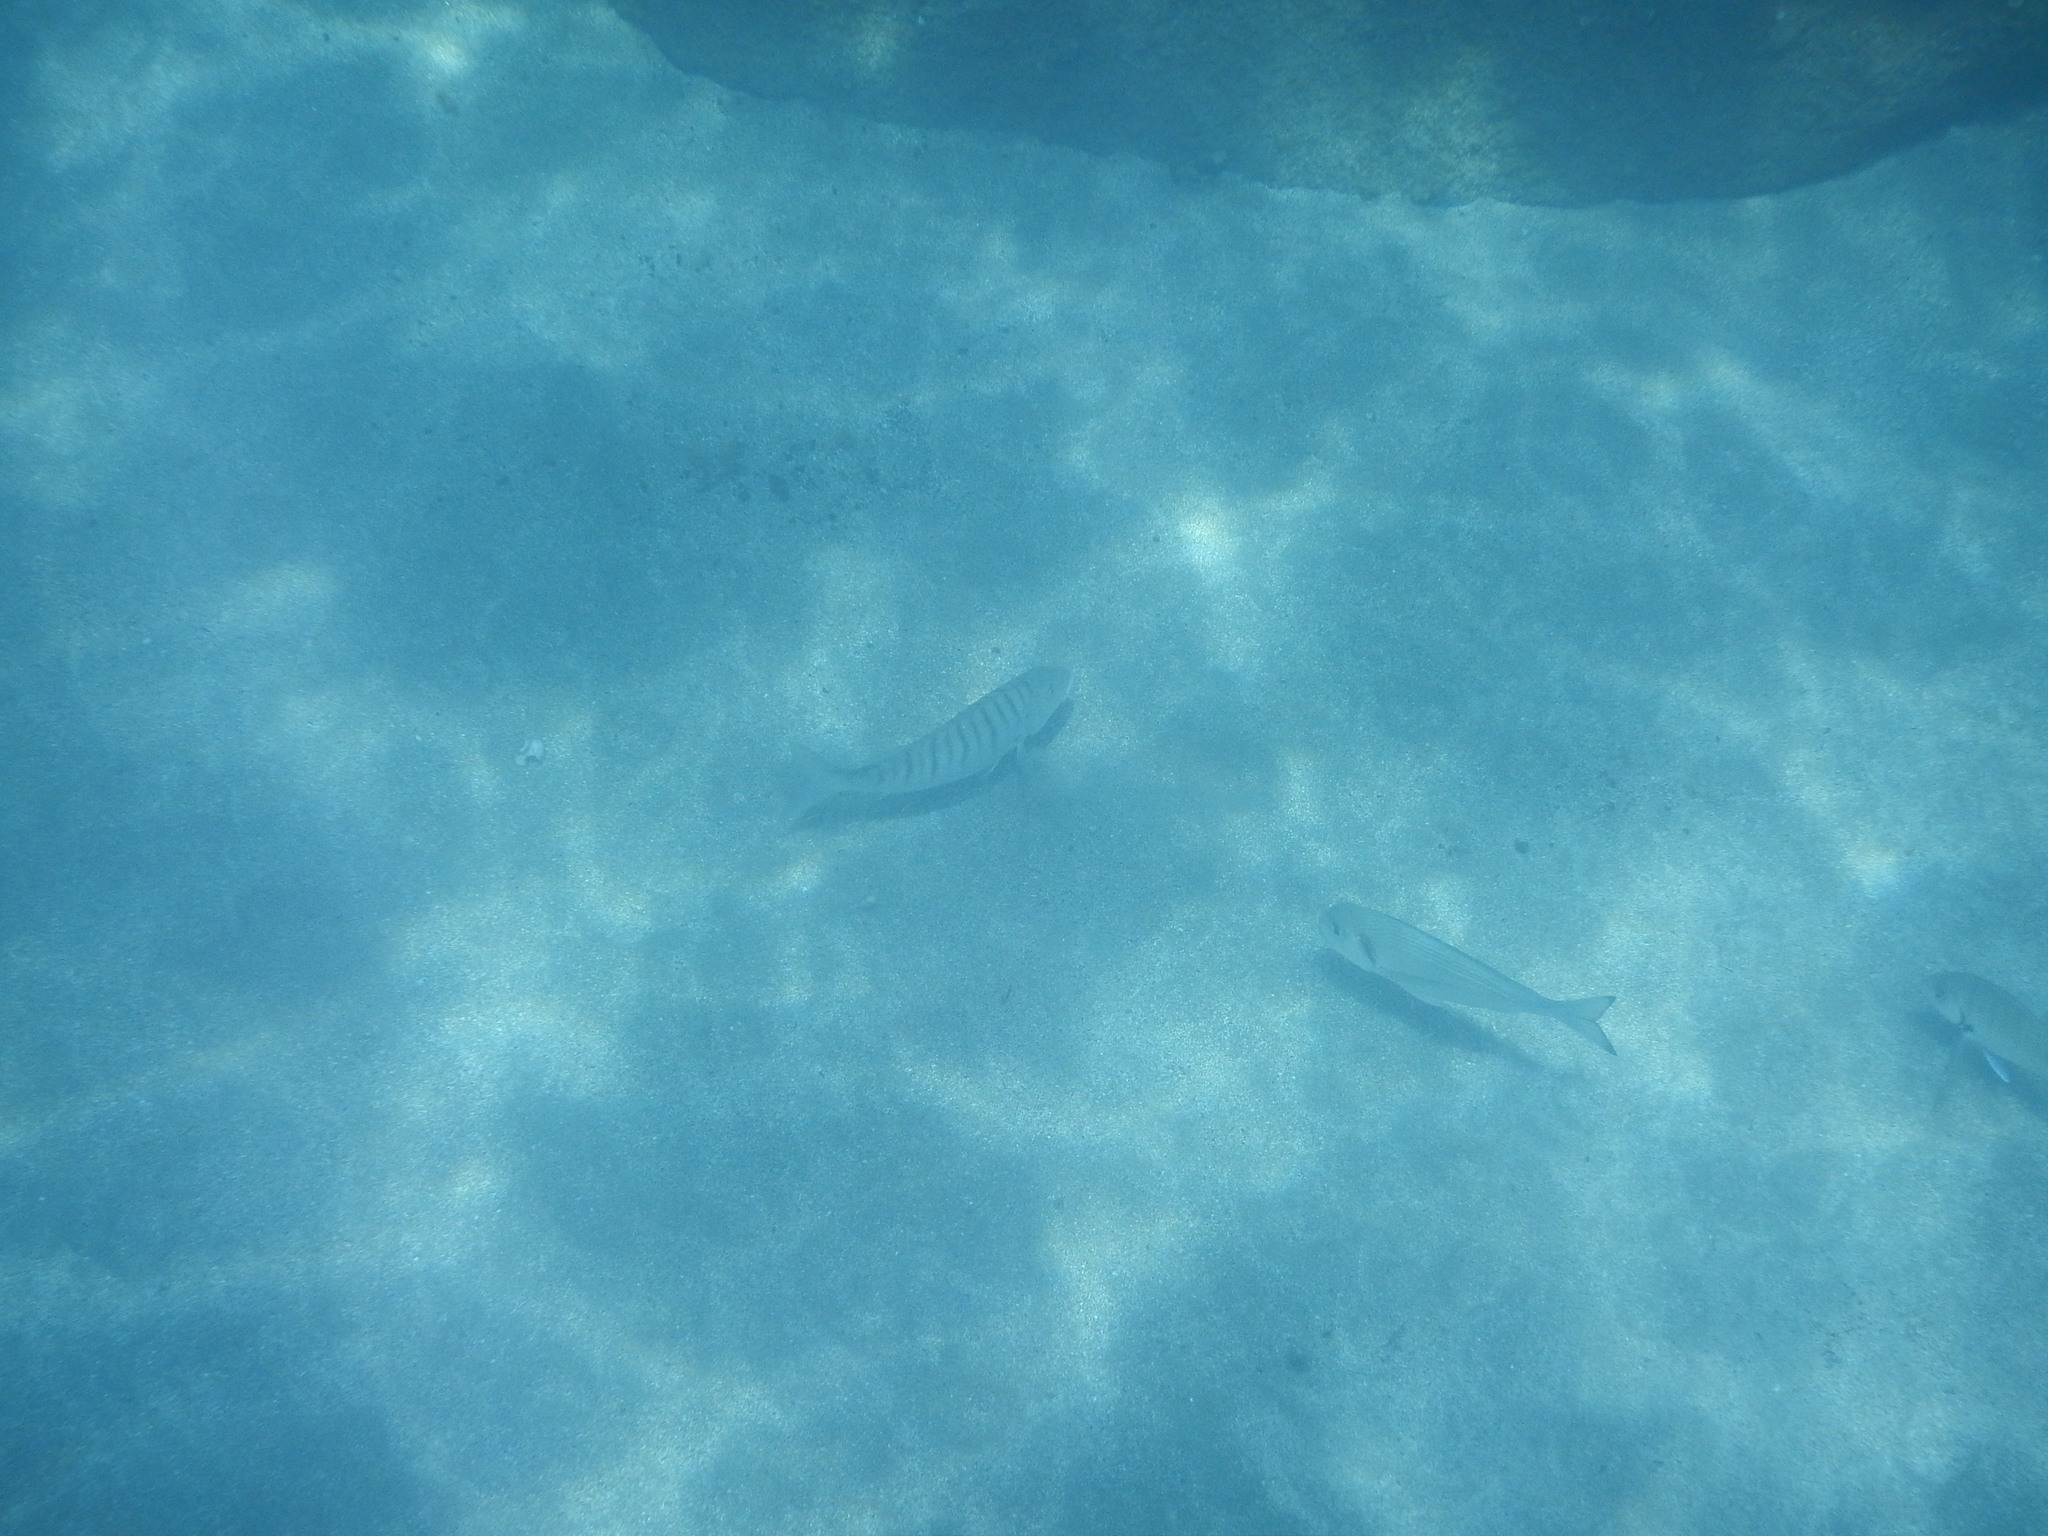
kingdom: Animalia
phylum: Chordata
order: Perciformes
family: Sparidae
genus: Lithognathus
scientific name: Lithognathus mormyrus
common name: Sand steenbras
